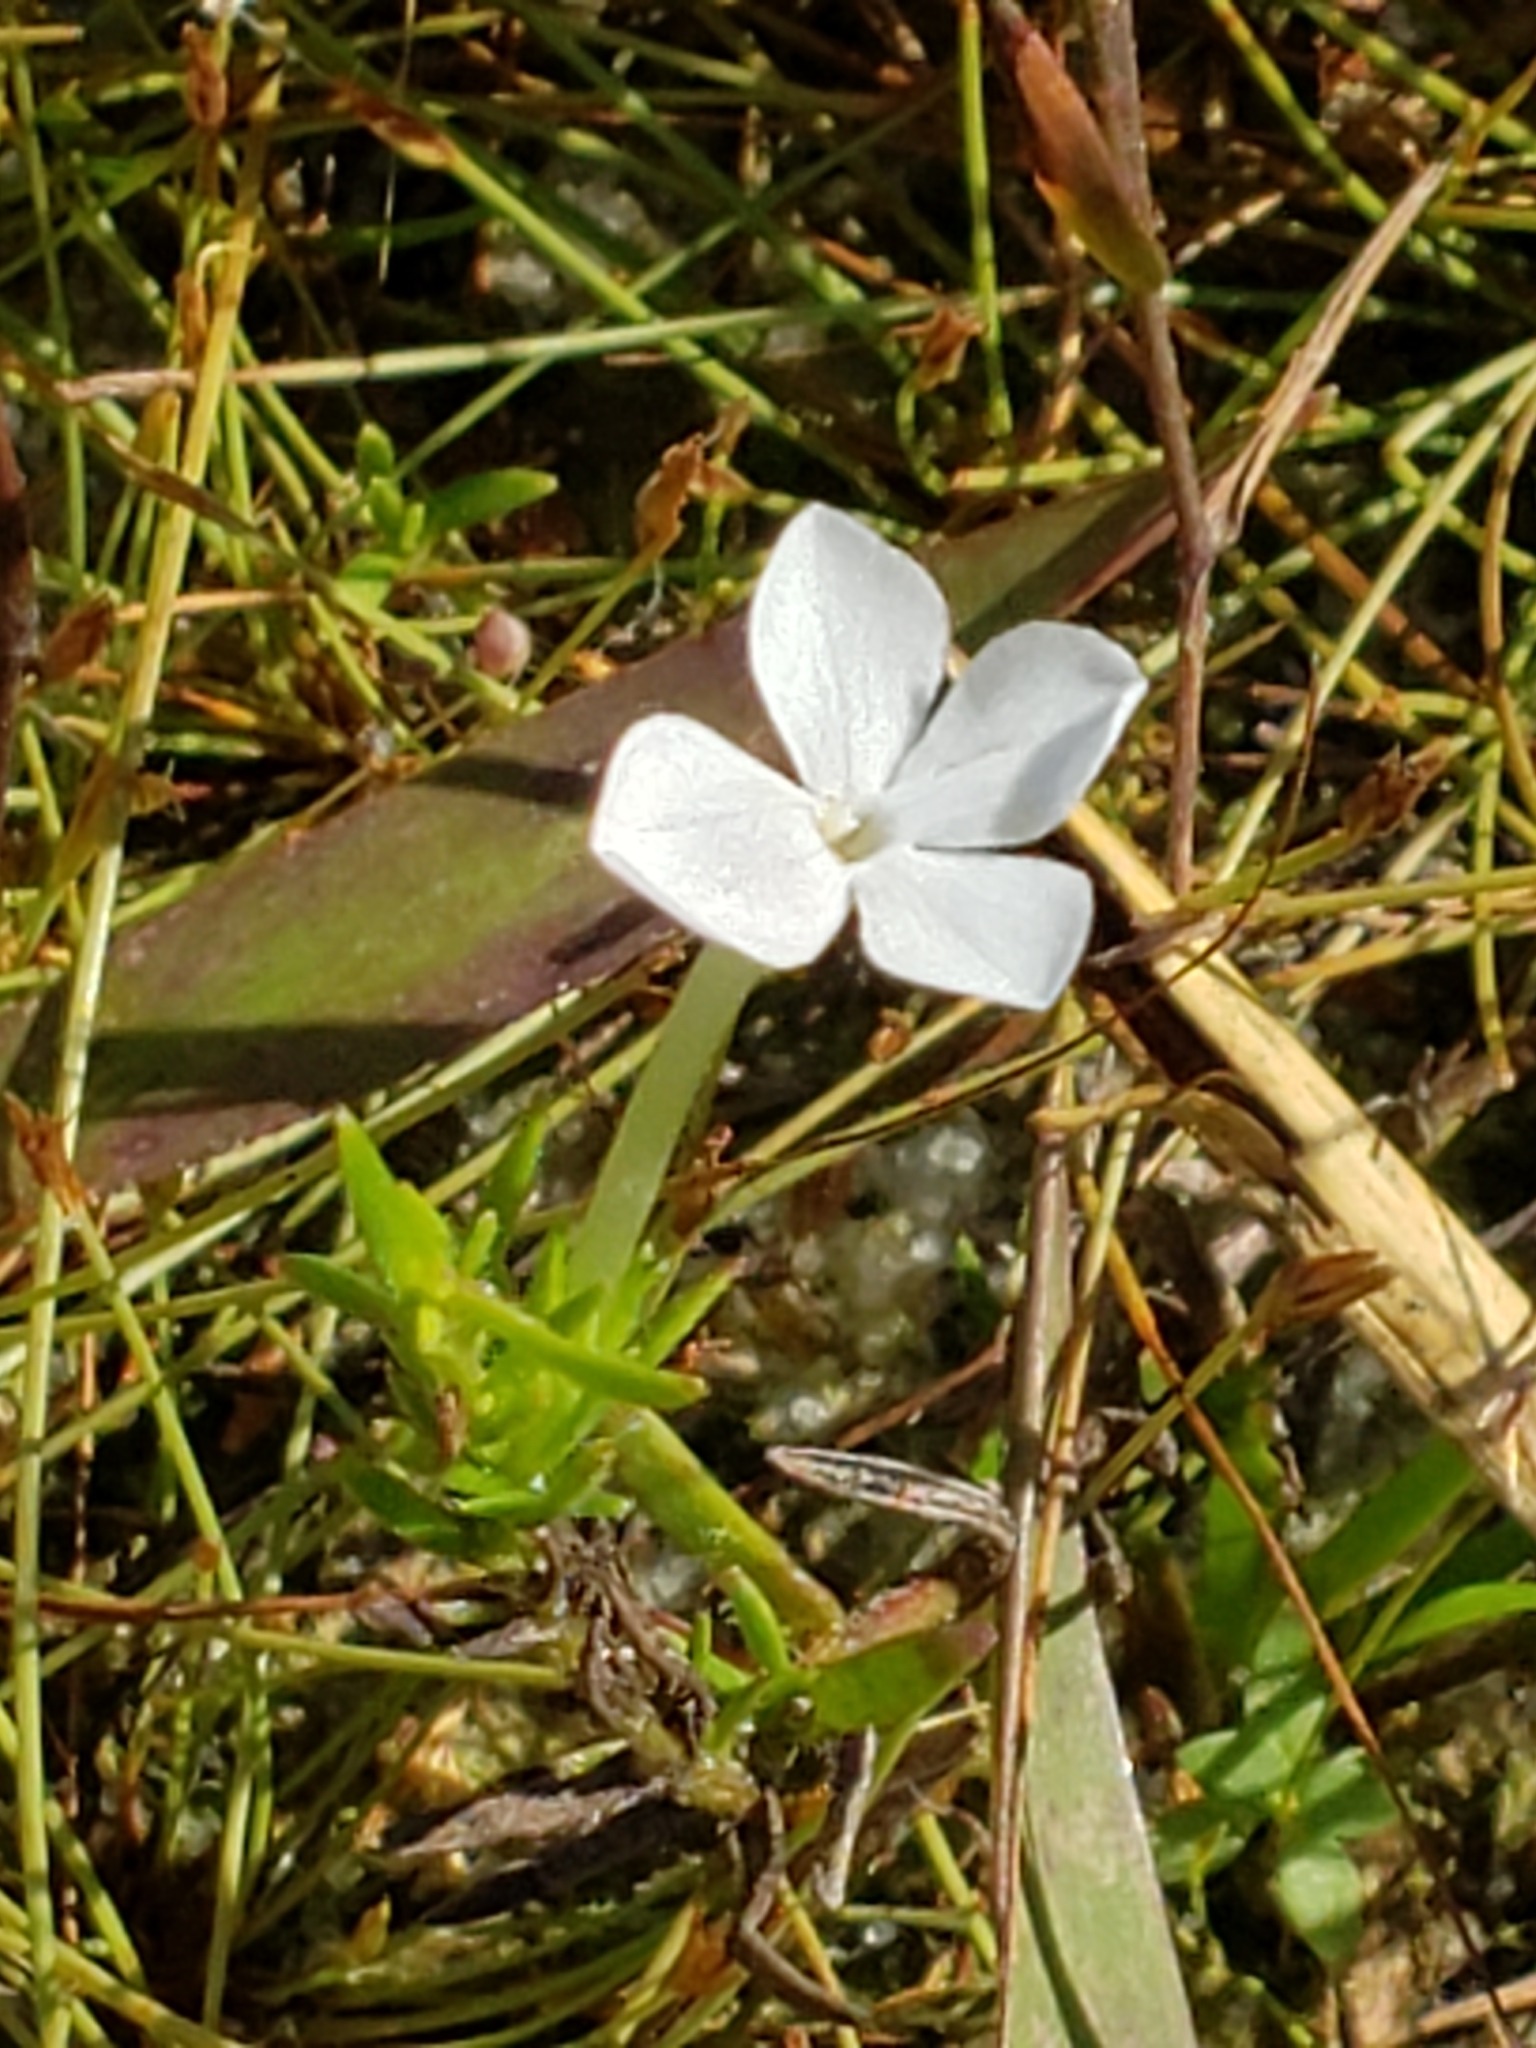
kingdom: Plantae
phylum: Tracheophyta
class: Magnoliopsida
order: Lamiales
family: Plantaginaceae
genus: Gratiola
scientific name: Gratiola hispida
